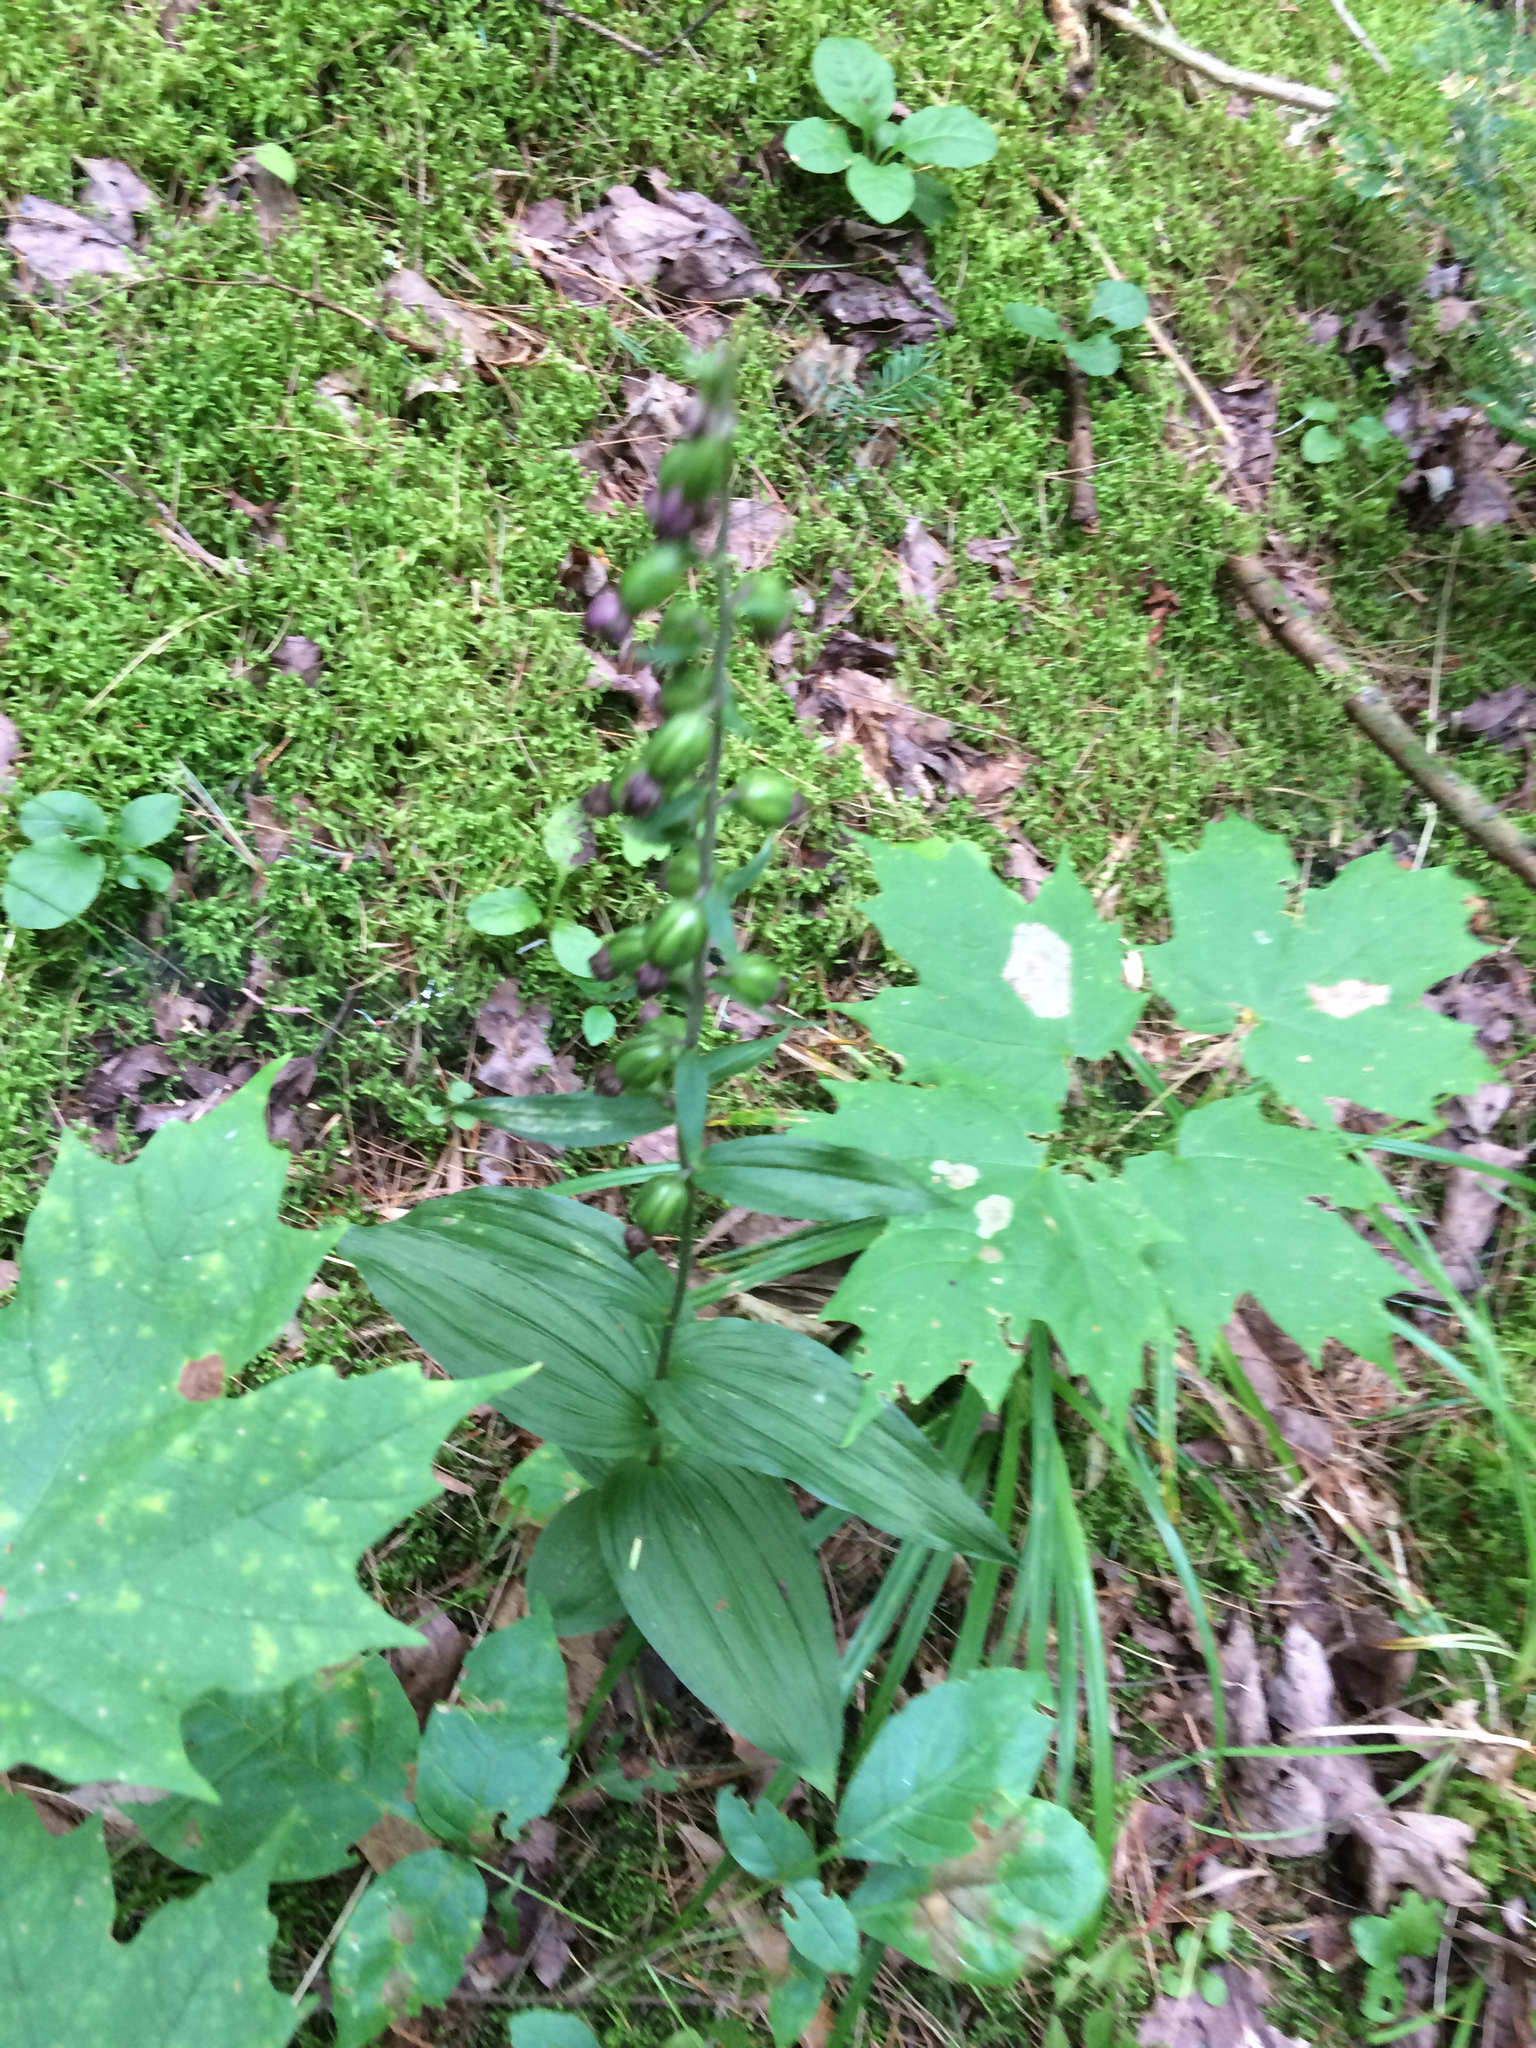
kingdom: Plantae
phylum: Tracheophyta
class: Liliopsida
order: Asparagales
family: Orchidaceae
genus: Epipactis
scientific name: Epipactis helleborine
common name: Broad-leaved helleborine
